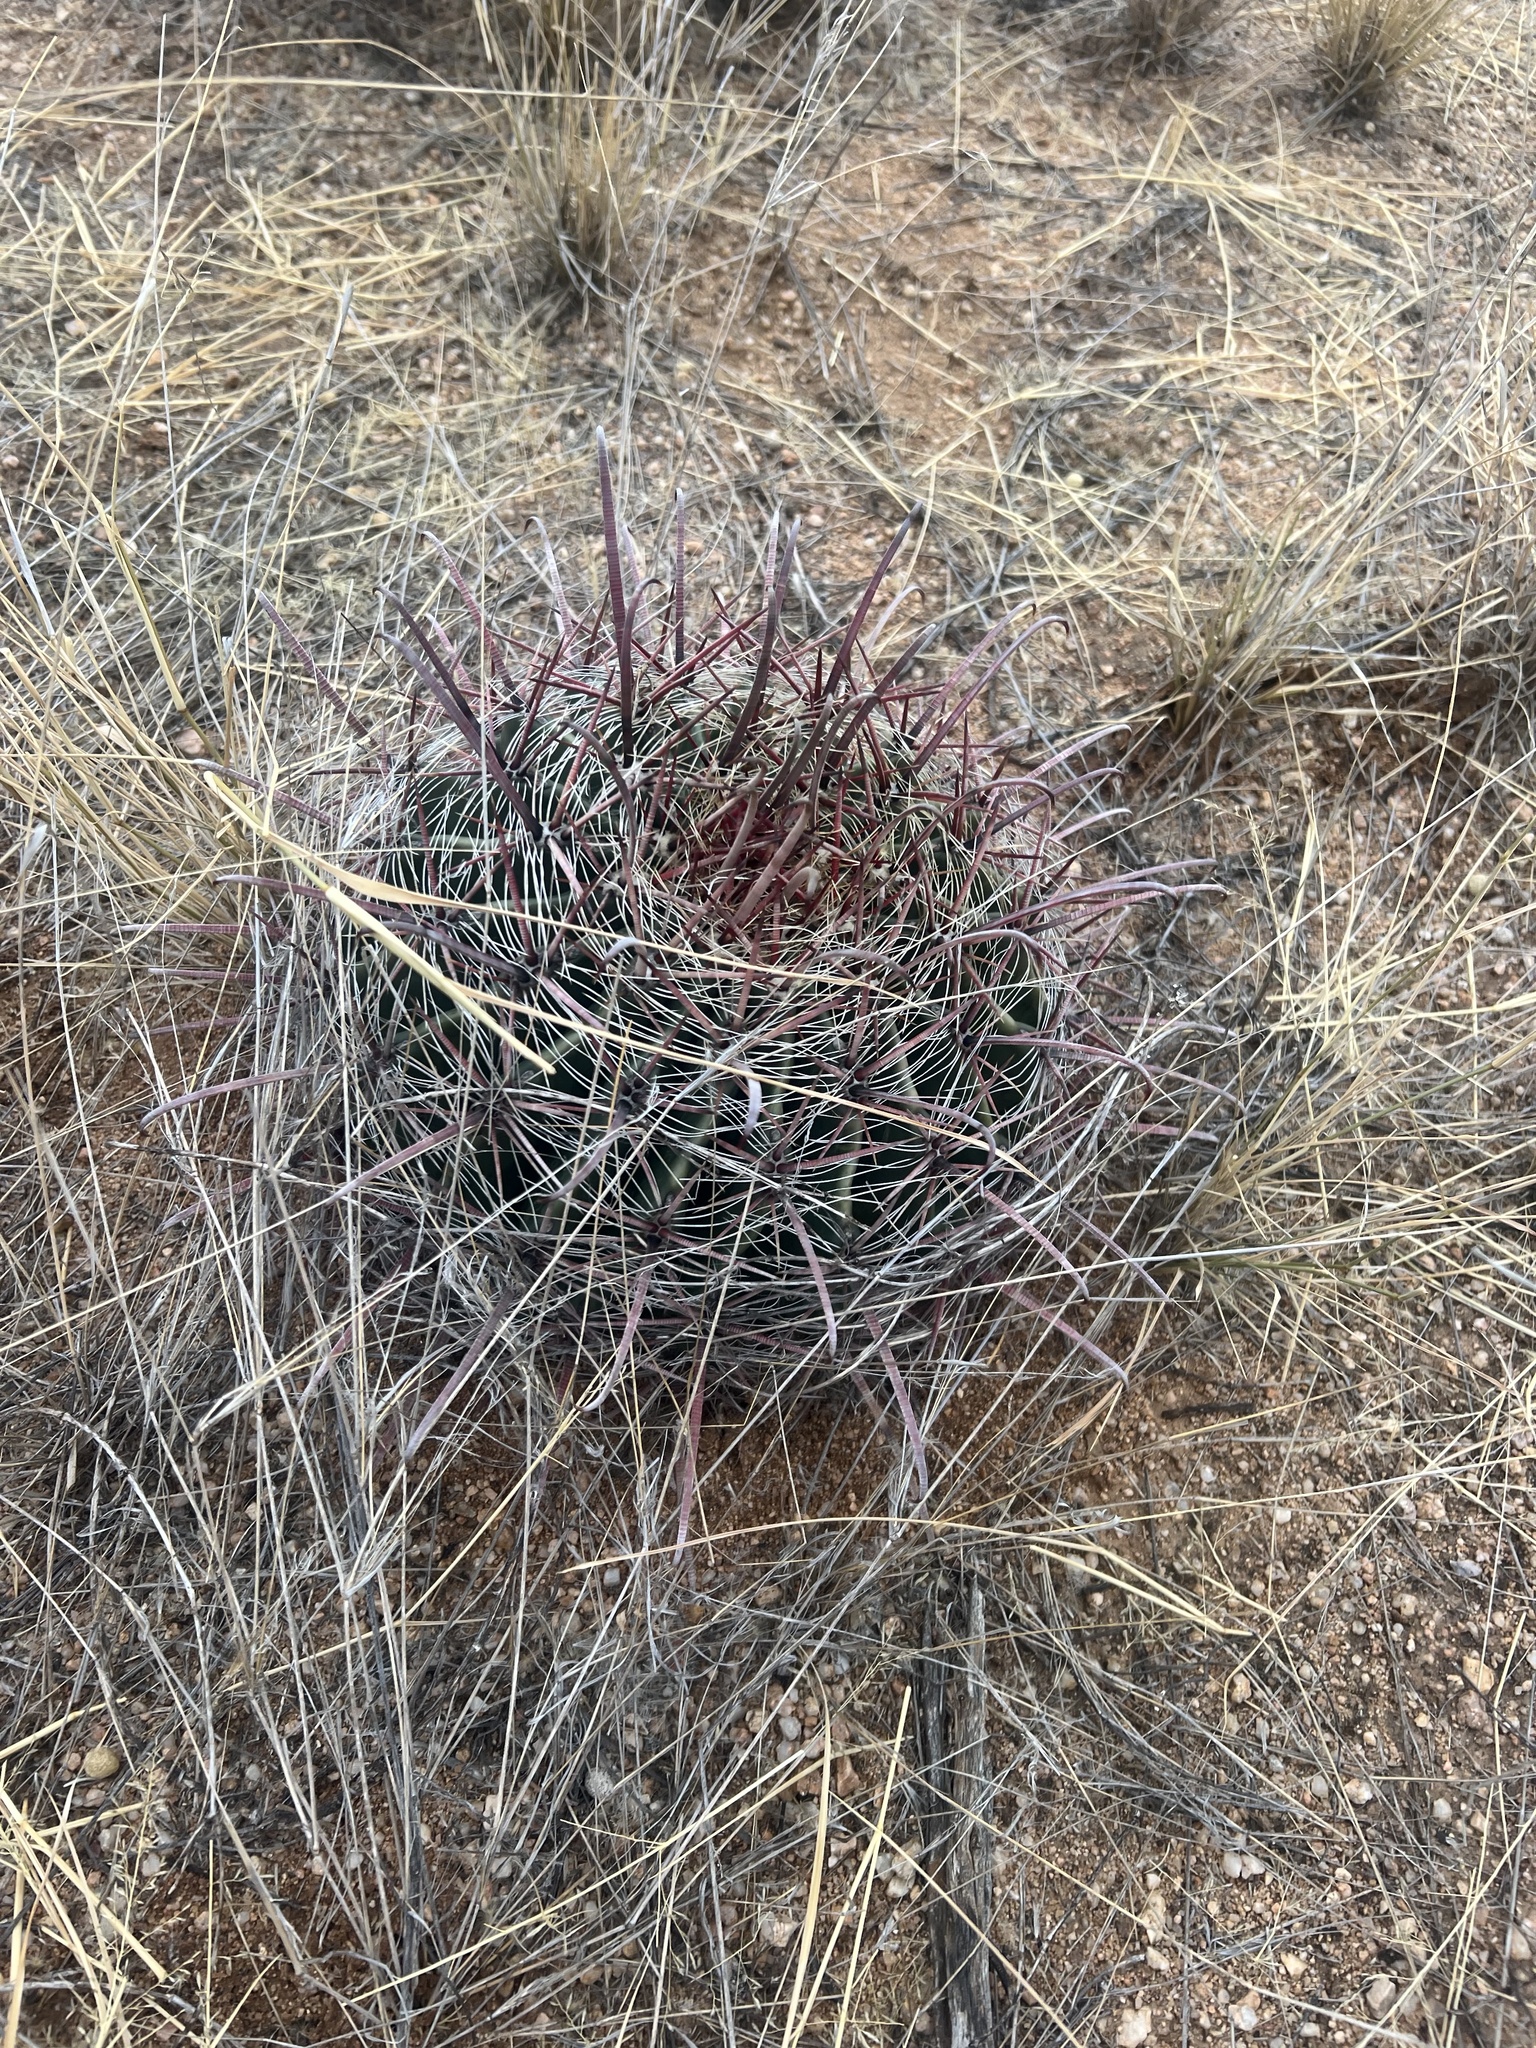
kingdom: Plantae
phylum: Tracheophyta
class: Magnoliopsida
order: Caryophyllales
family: Cactaceae
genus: Ferocactus
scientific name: Ferocactus wislizeni
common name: Candy barrel cactus
